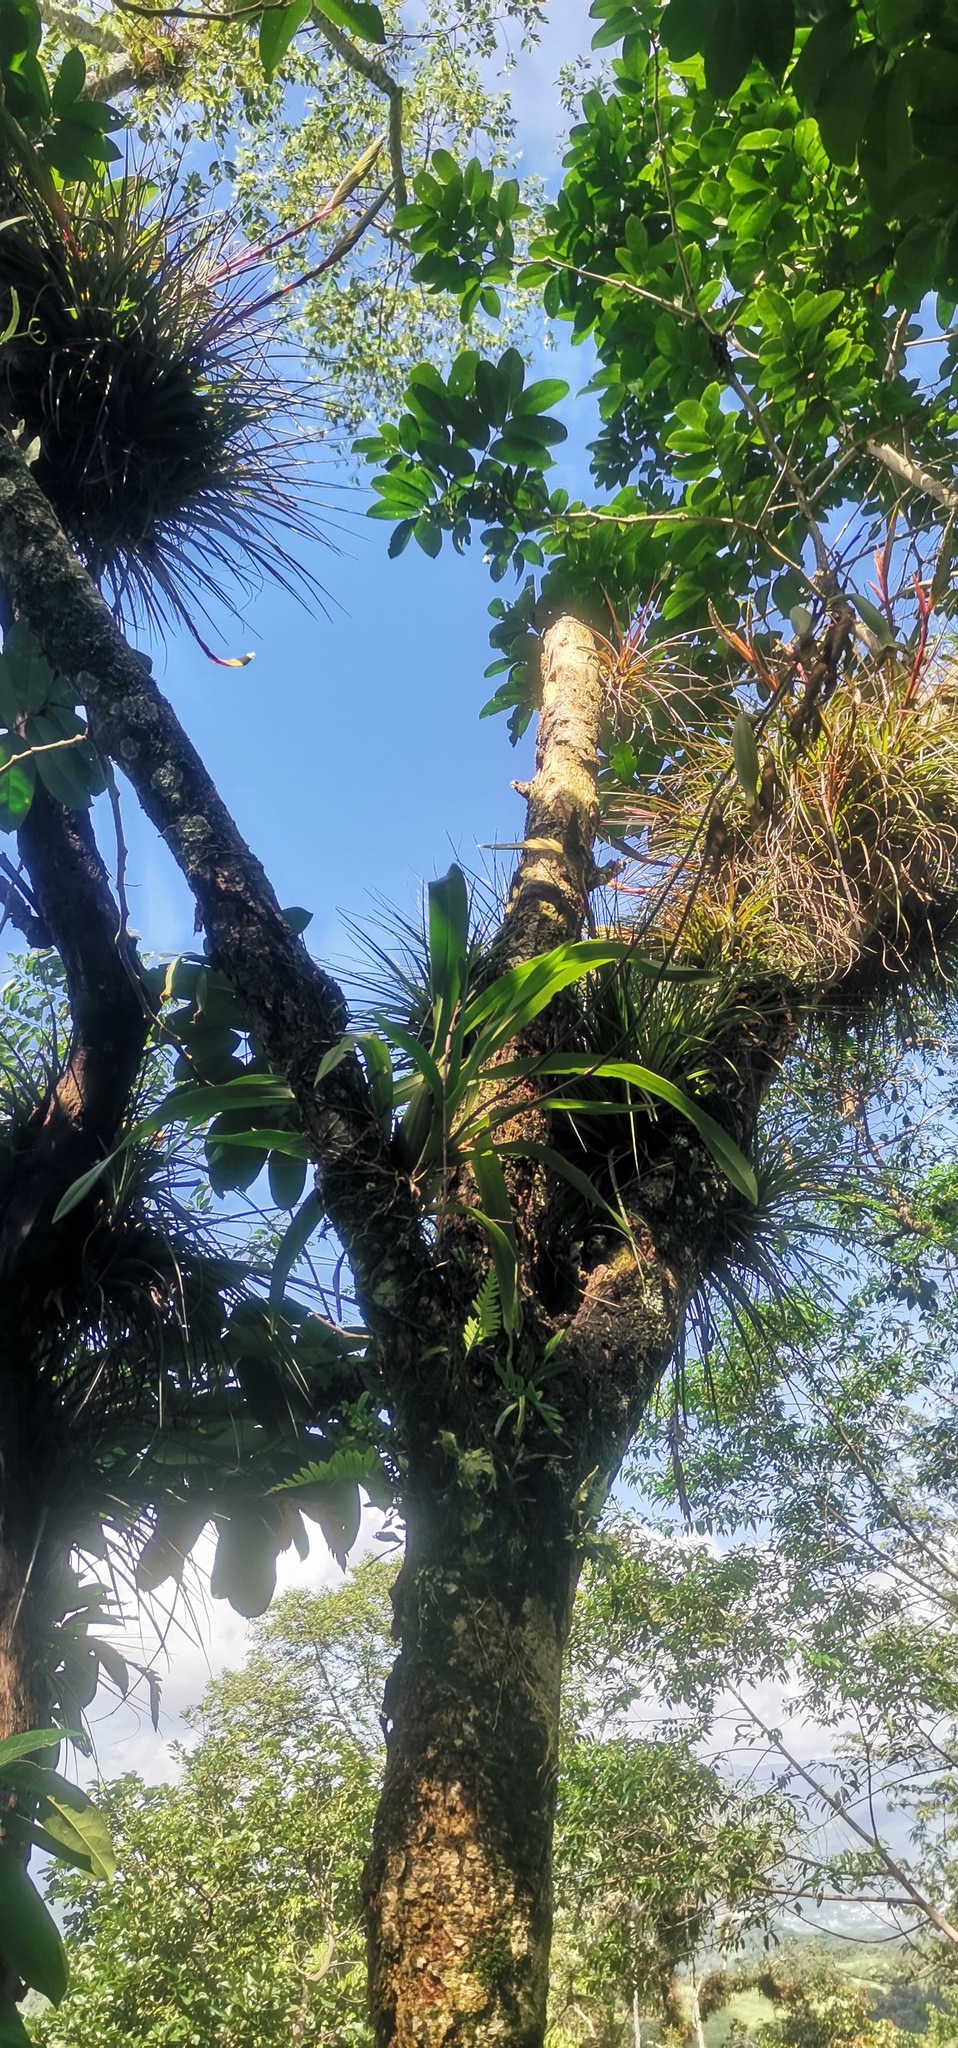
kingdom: Plantae
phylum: Tracheophyta
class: Liliopsida
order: Asparagales
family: Orchidaceae
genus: Brassia
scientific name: Brassia verrucosa
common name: Warty brassia
